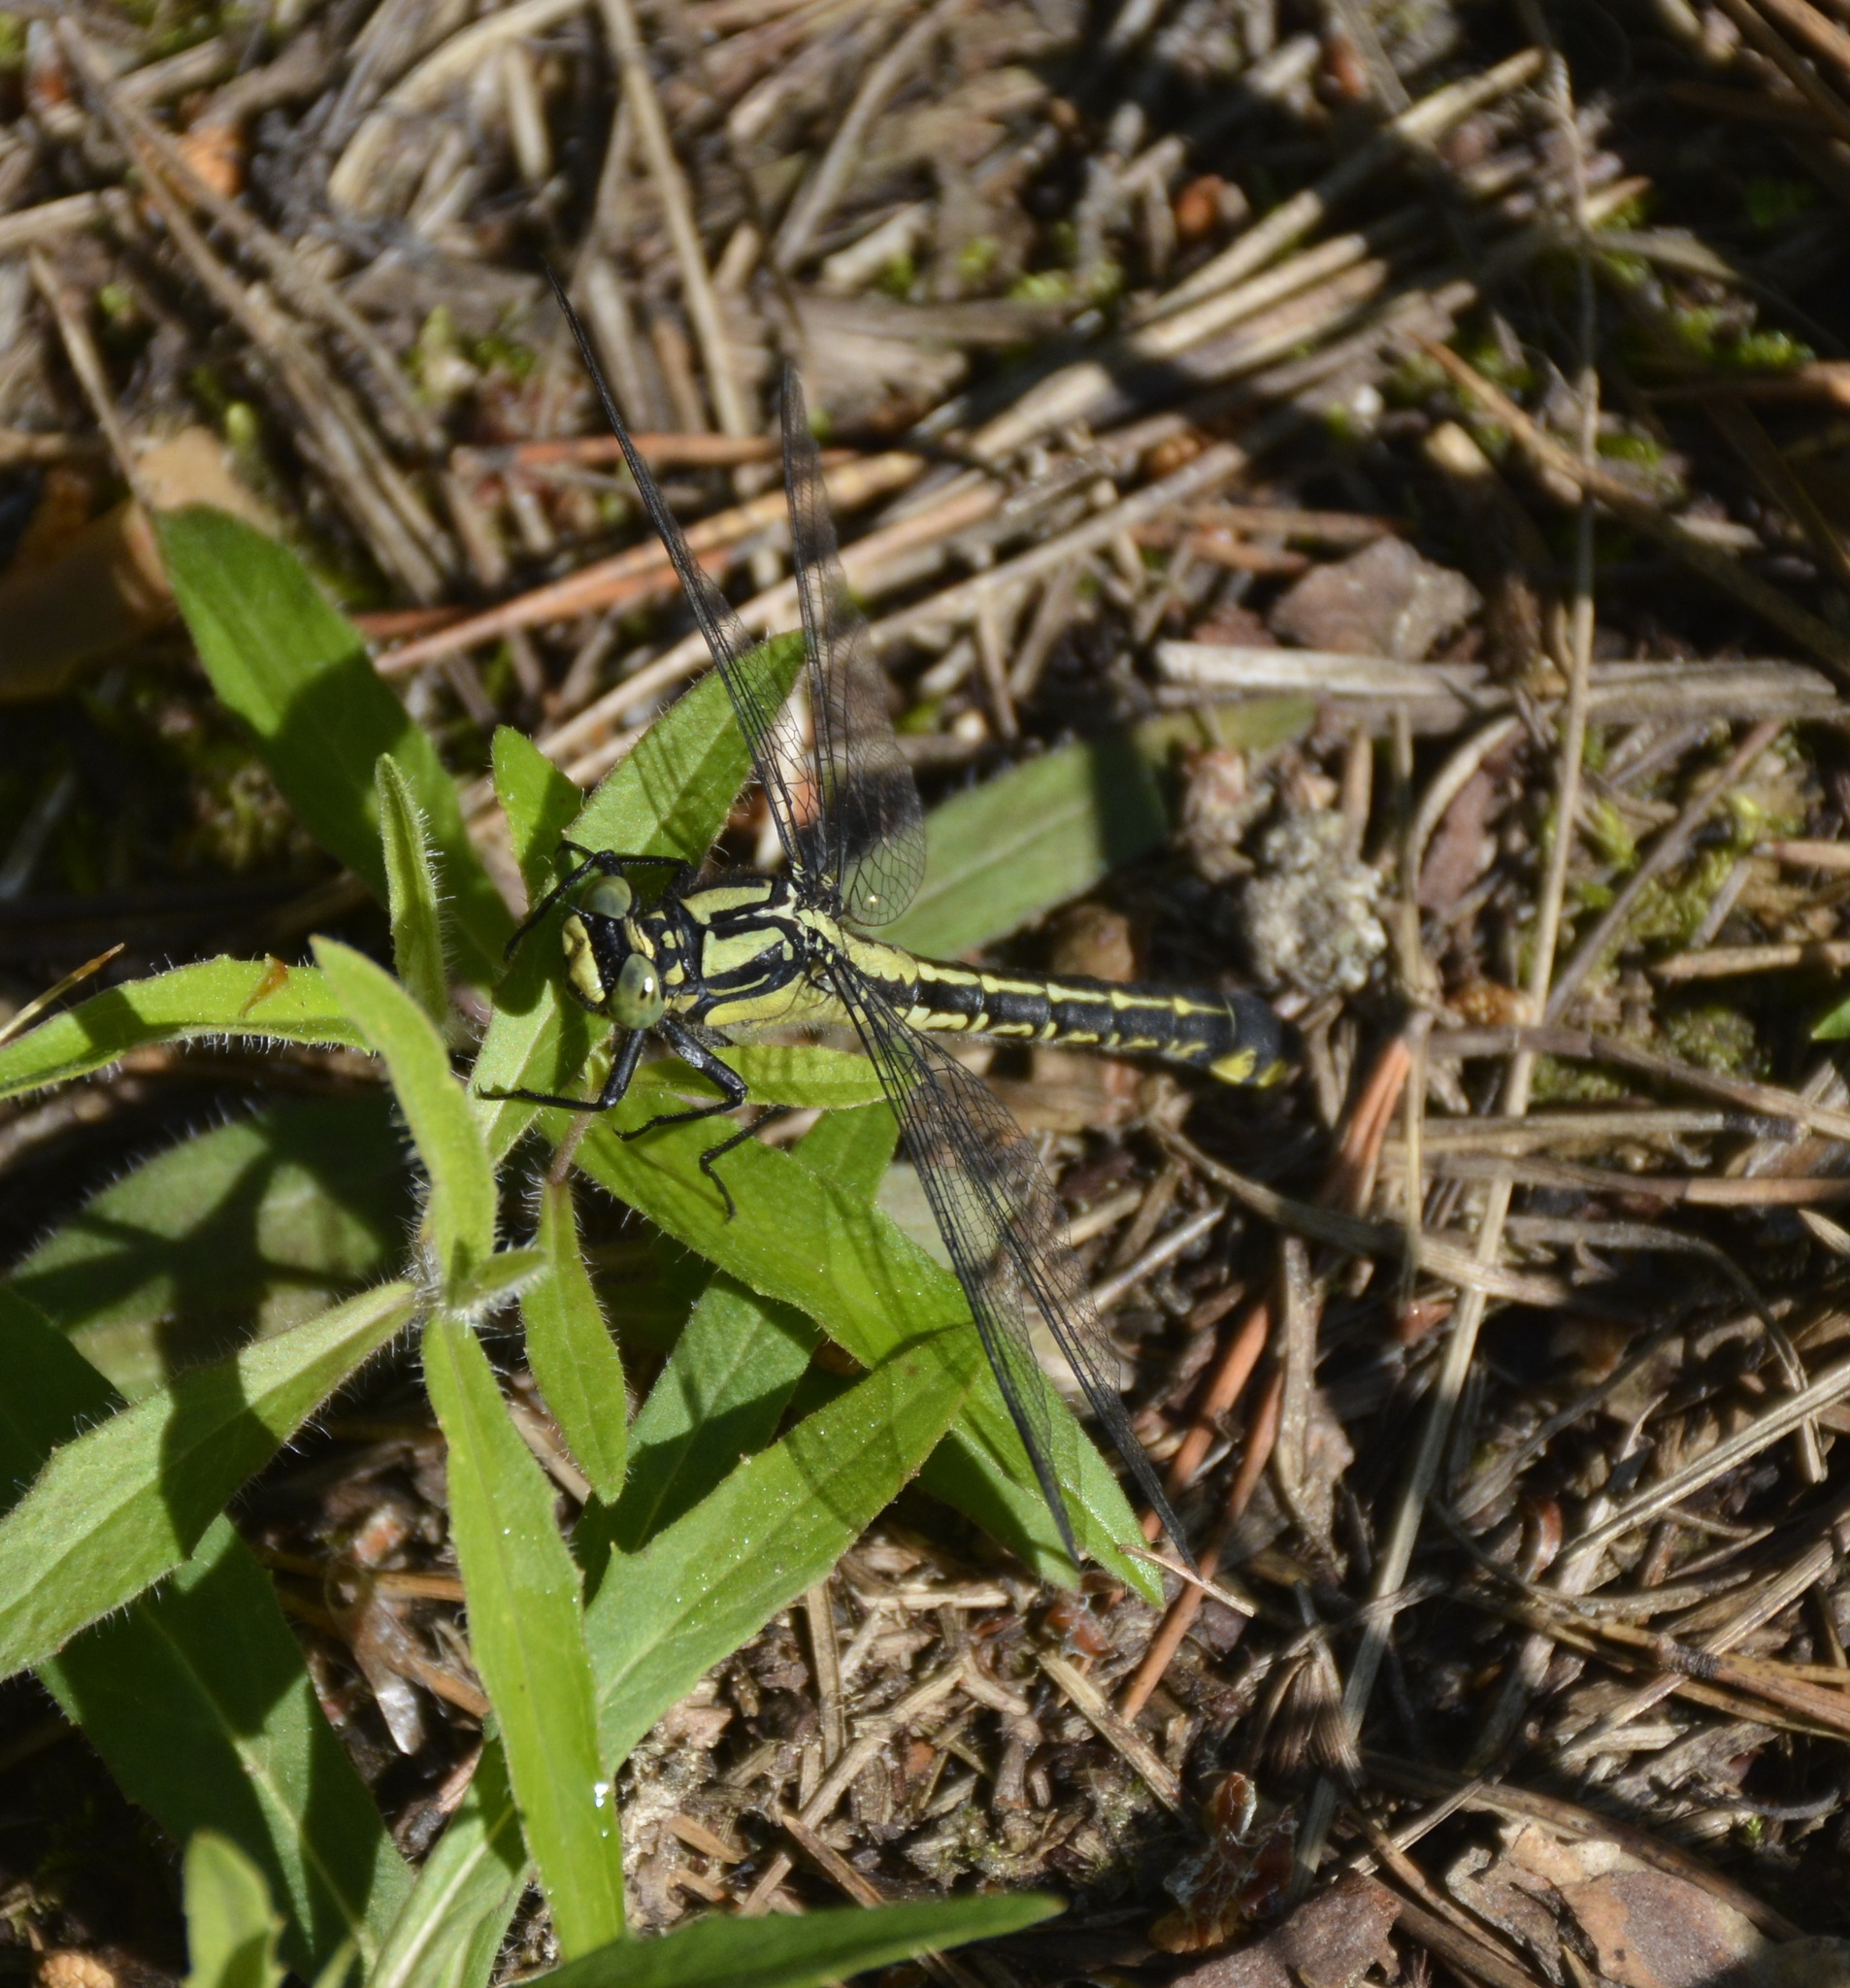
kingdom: Animalia
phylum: Arthropoda
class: Insecta
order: Odonata
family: Gomphidae
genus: Gomphus
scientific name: Gomphus vulgatissimus
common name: Club-tailed dragonfly
